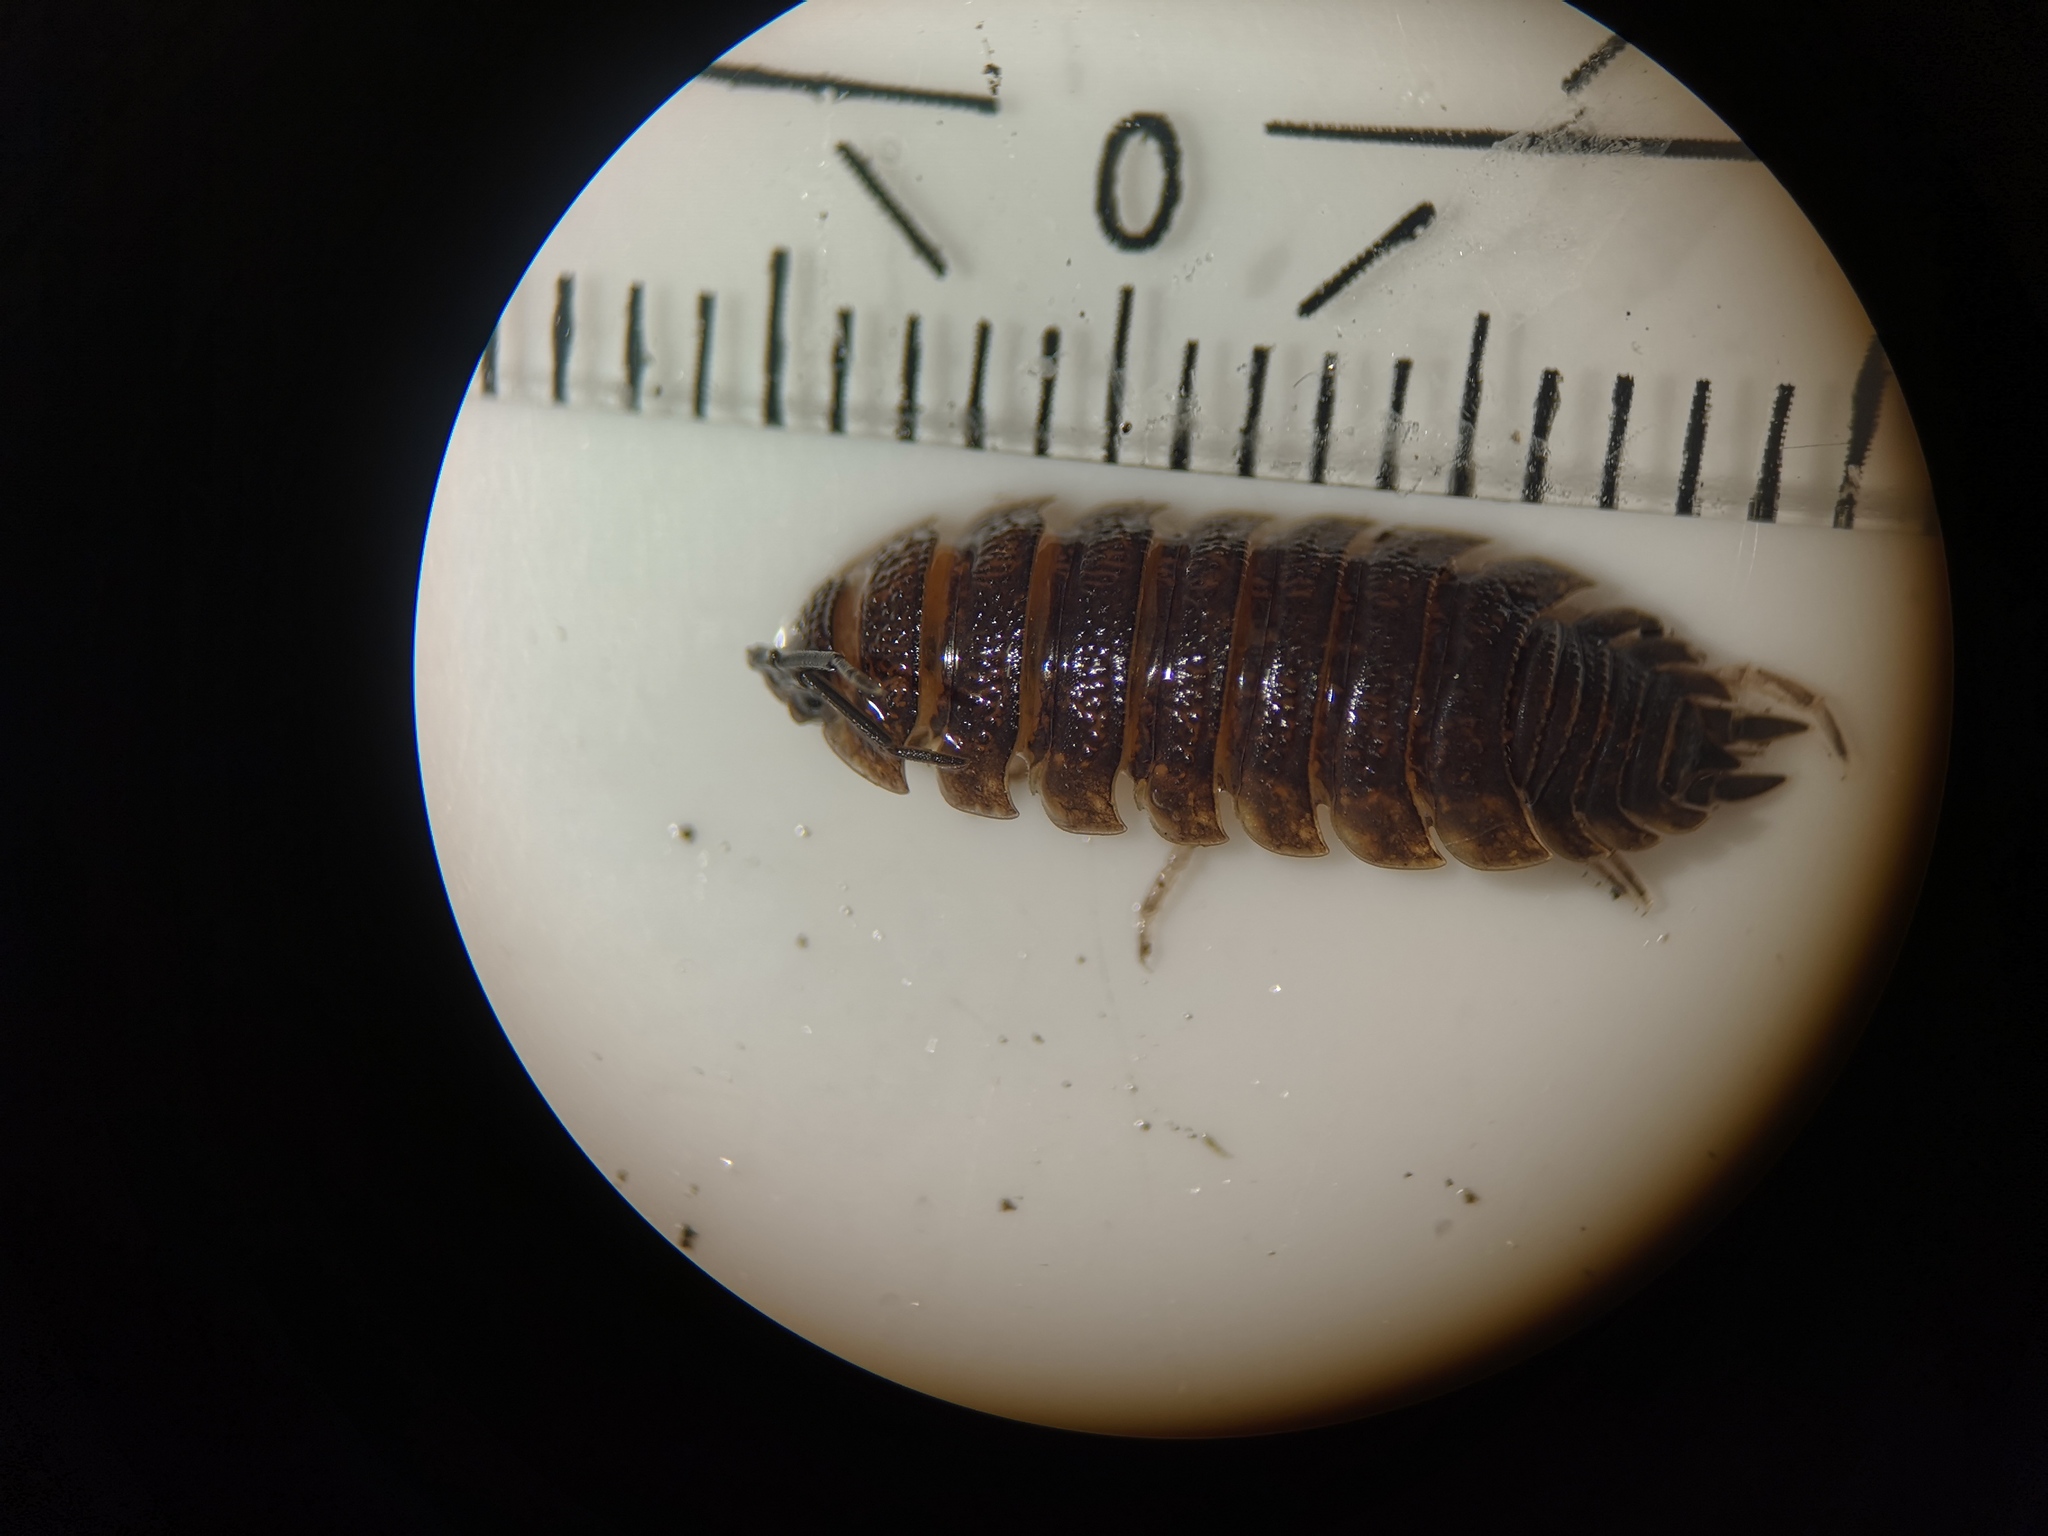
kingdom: Animalia
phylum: Arthropoda
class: Malacostraca
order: Isopoda
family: Porcellionidae
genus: Porcellio
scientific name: Porcellio scaber
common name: Common rough woodlouse
